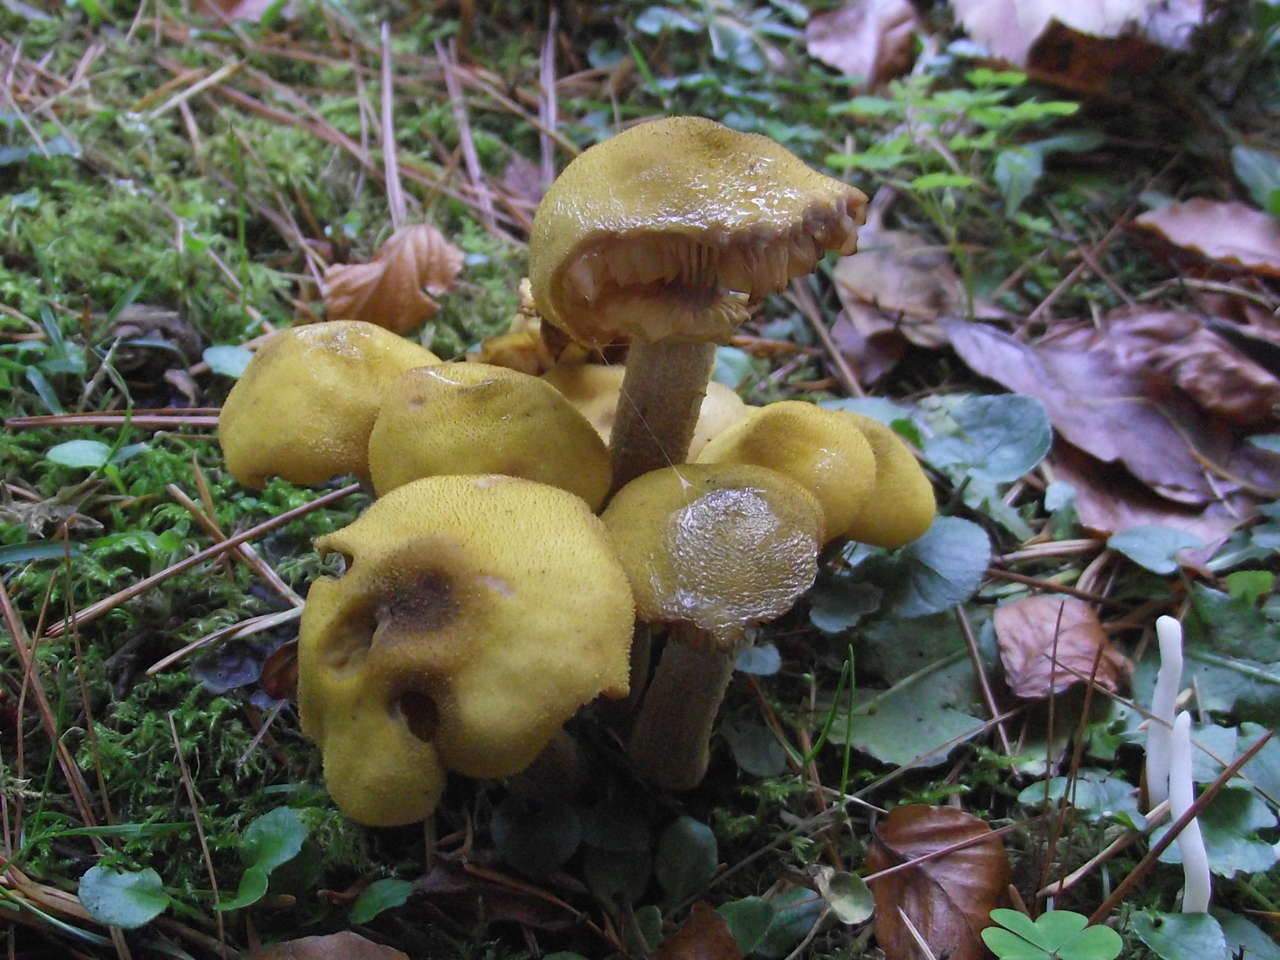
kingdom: Fungi
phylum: Basidiomycota
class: Agaricomycetes
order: Agaricales
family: Physalacriaceae
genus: Armillaria
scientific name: Armillaria luteobubalina
